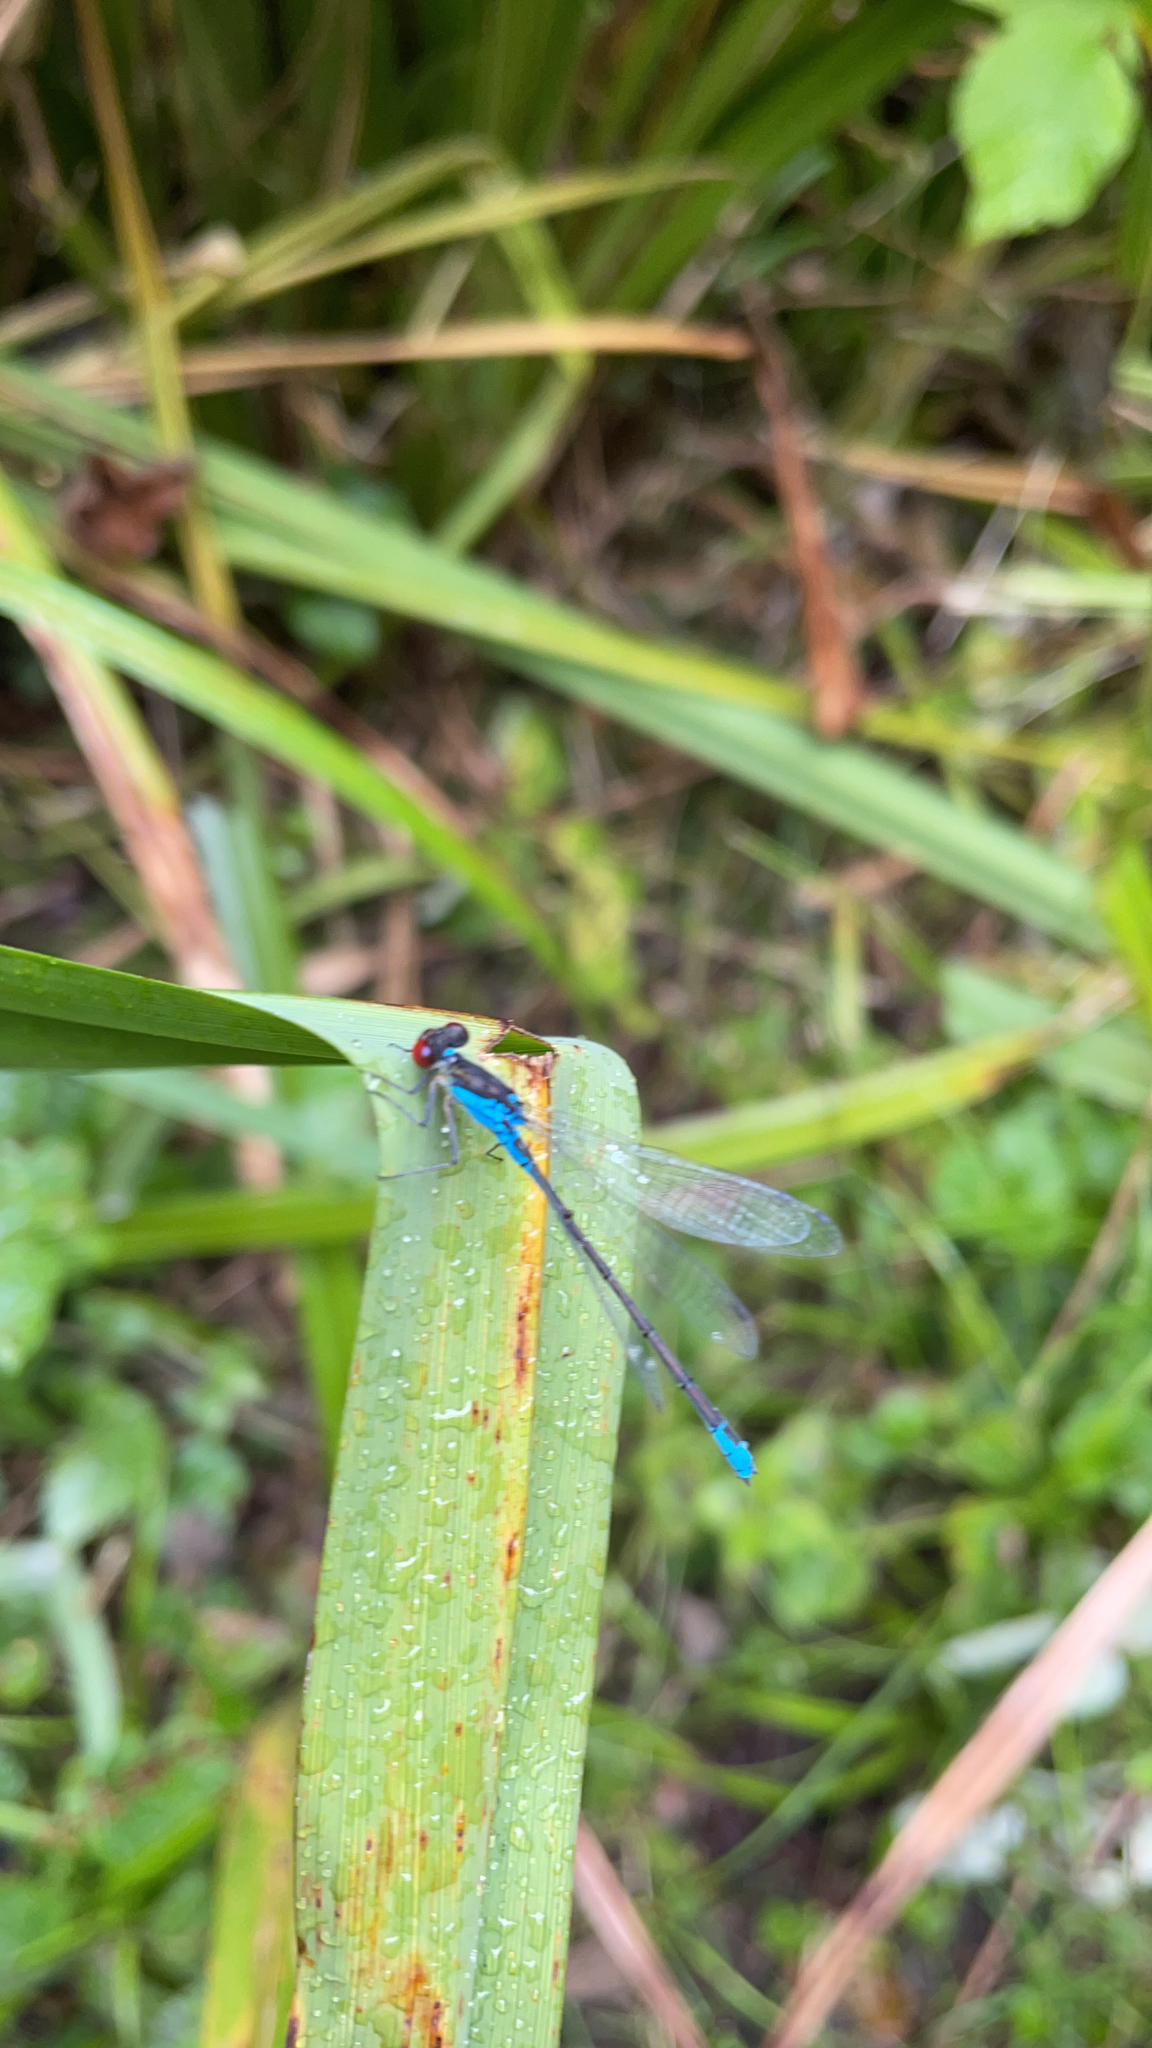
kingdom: Animalia
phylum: Arthropoda
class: Insecta
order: Odonata
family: Coenagrionidae
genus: Erythromma
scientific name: Erythromma viridulum
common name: Small red-eyed damselfly
